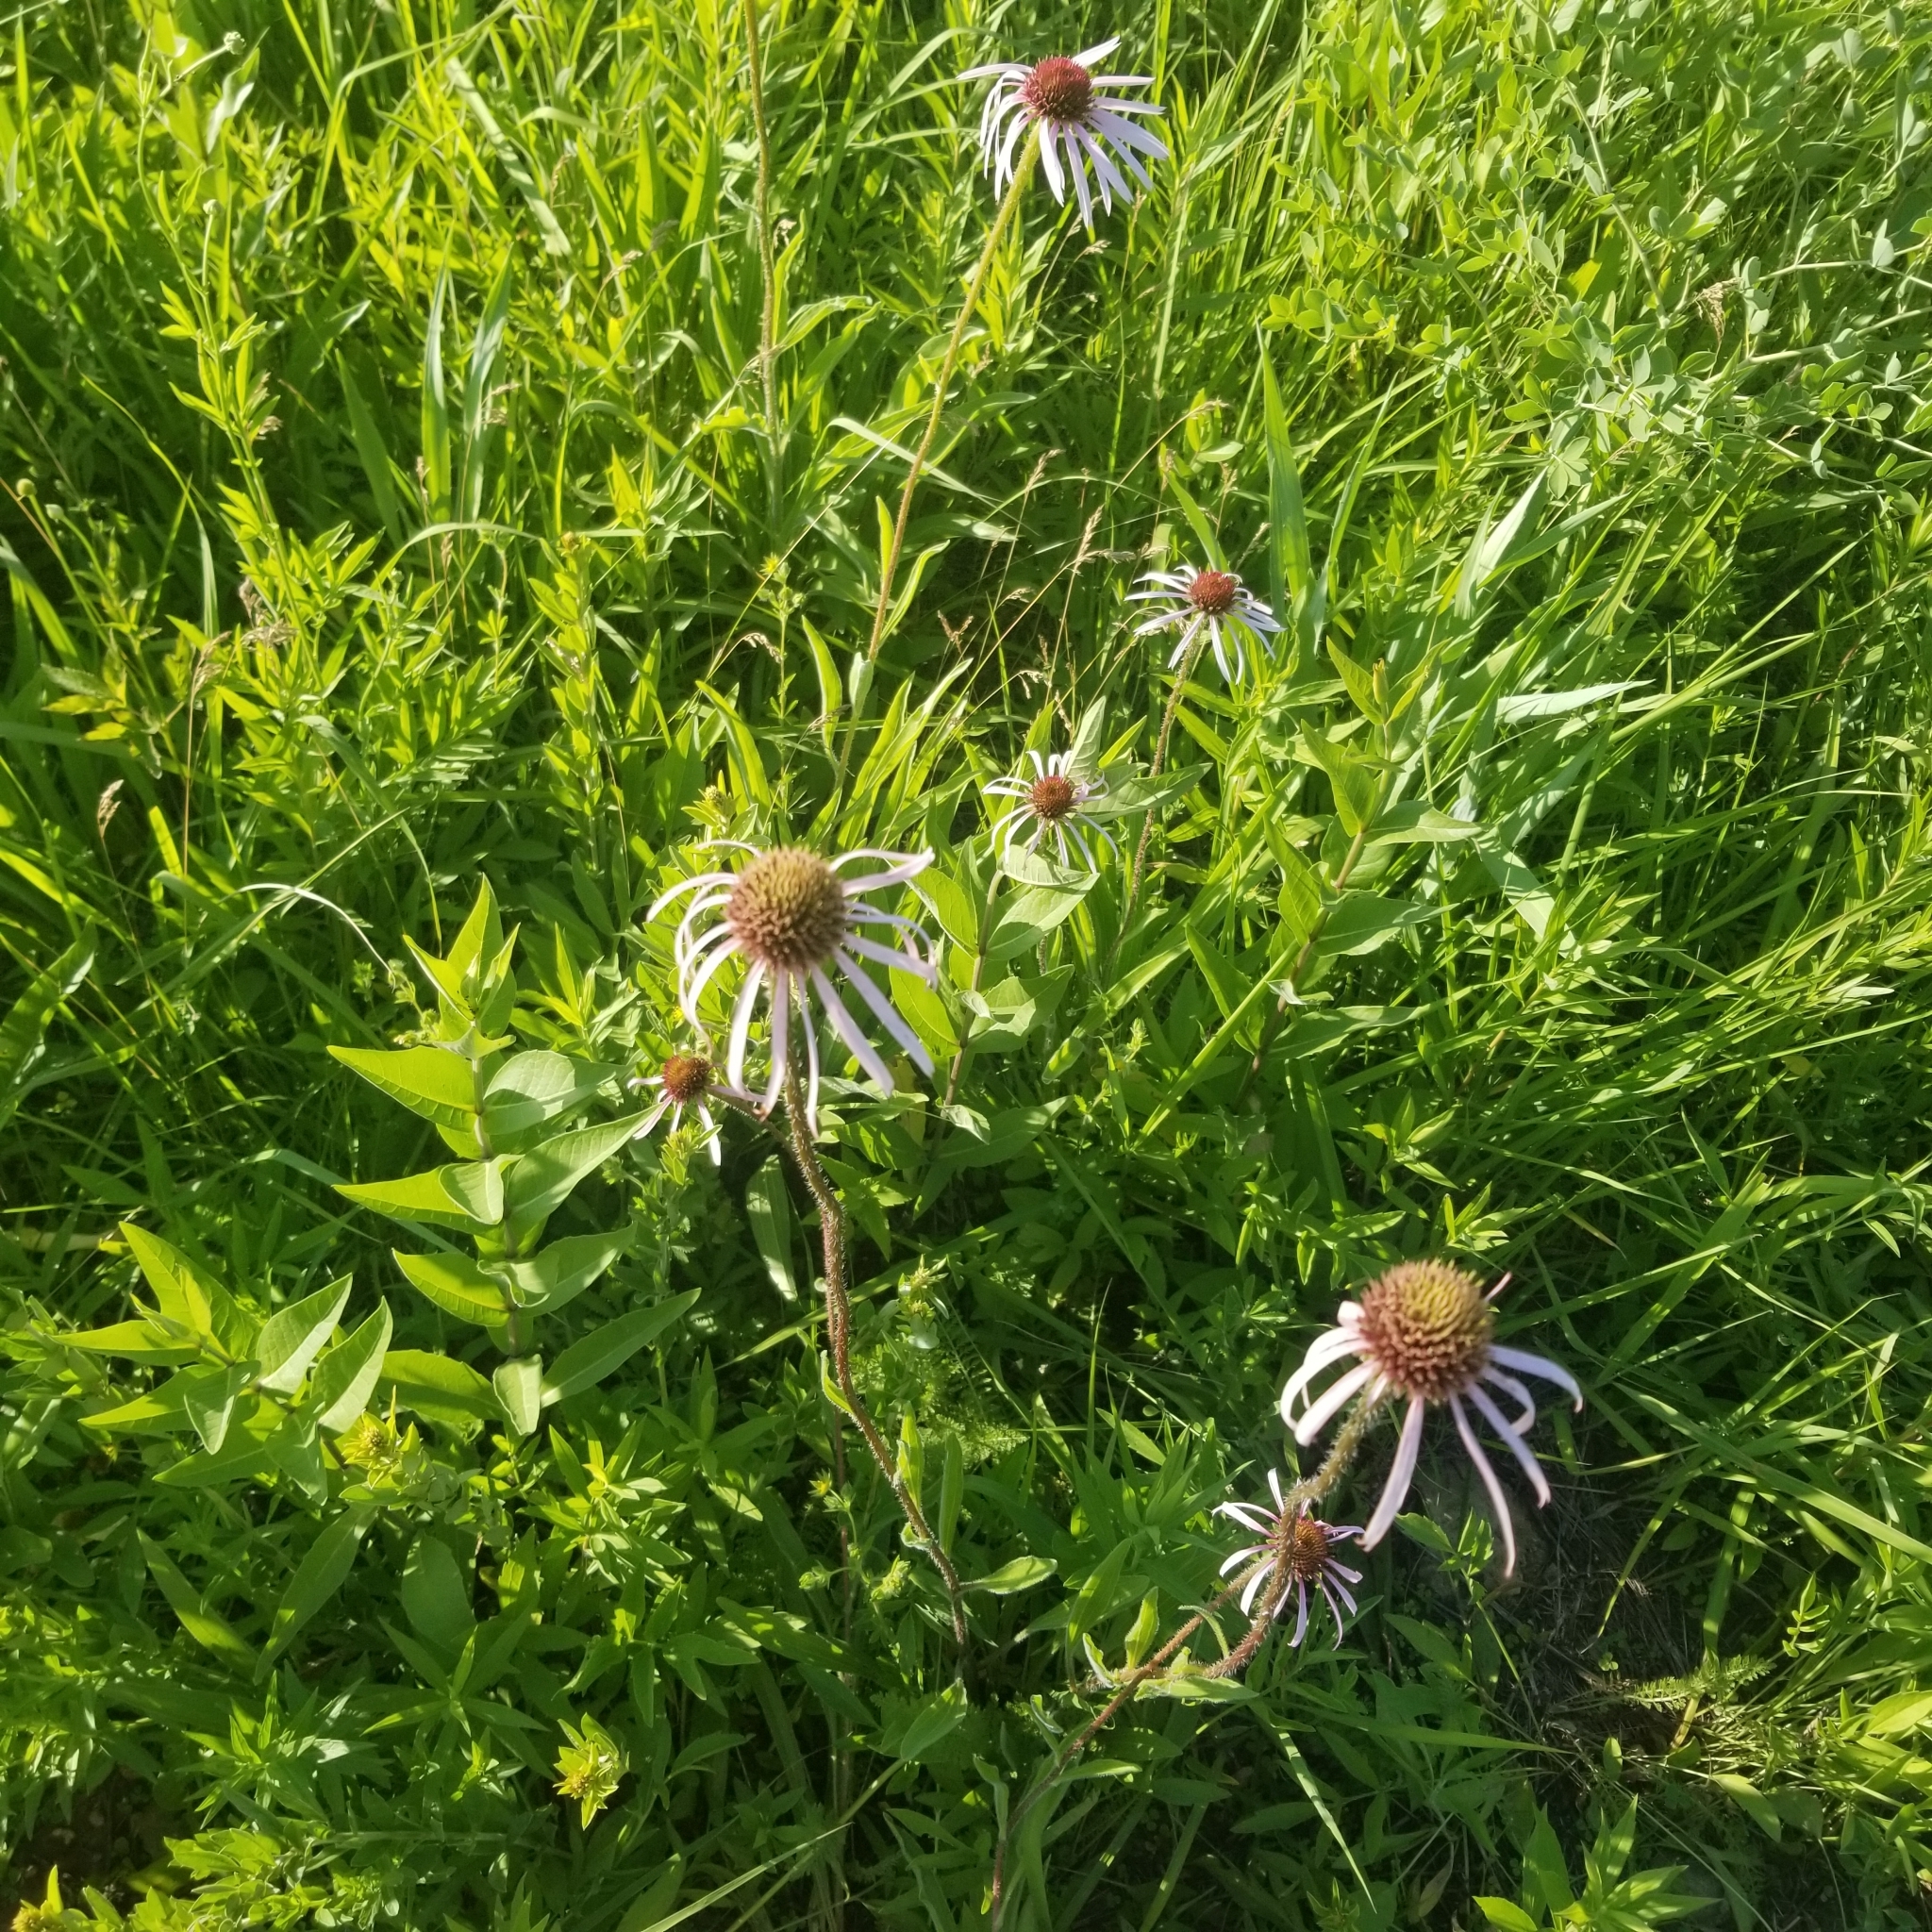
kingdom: Plantae
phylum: Tracheophyta
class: Magnoliopsida
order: Asterales
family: Asteraceae
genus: Echinacea
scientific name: Echinacea pallida
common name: Pale echinacea
